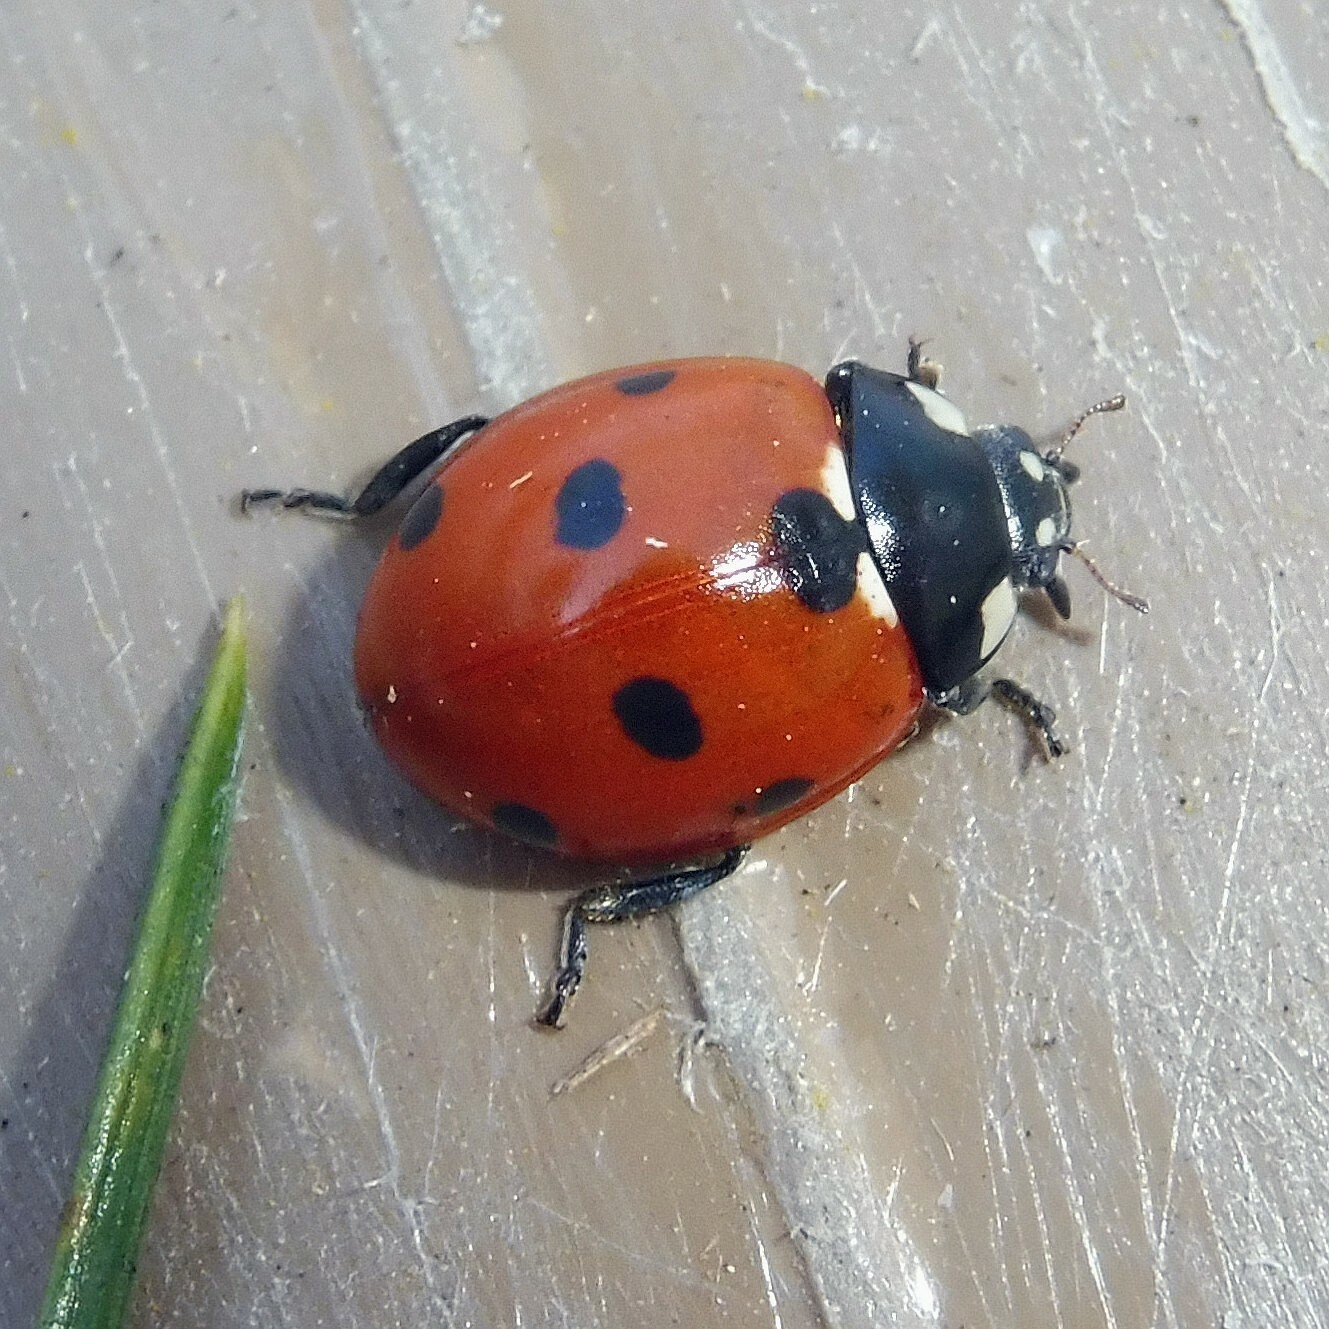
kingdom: Animalia
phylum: Arthropoda
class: Insecta
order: Coleoptera
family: Coccinellidae
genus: Coccinella
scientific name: Coccinella septempunctata
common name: Sevenspotted lady beetle
